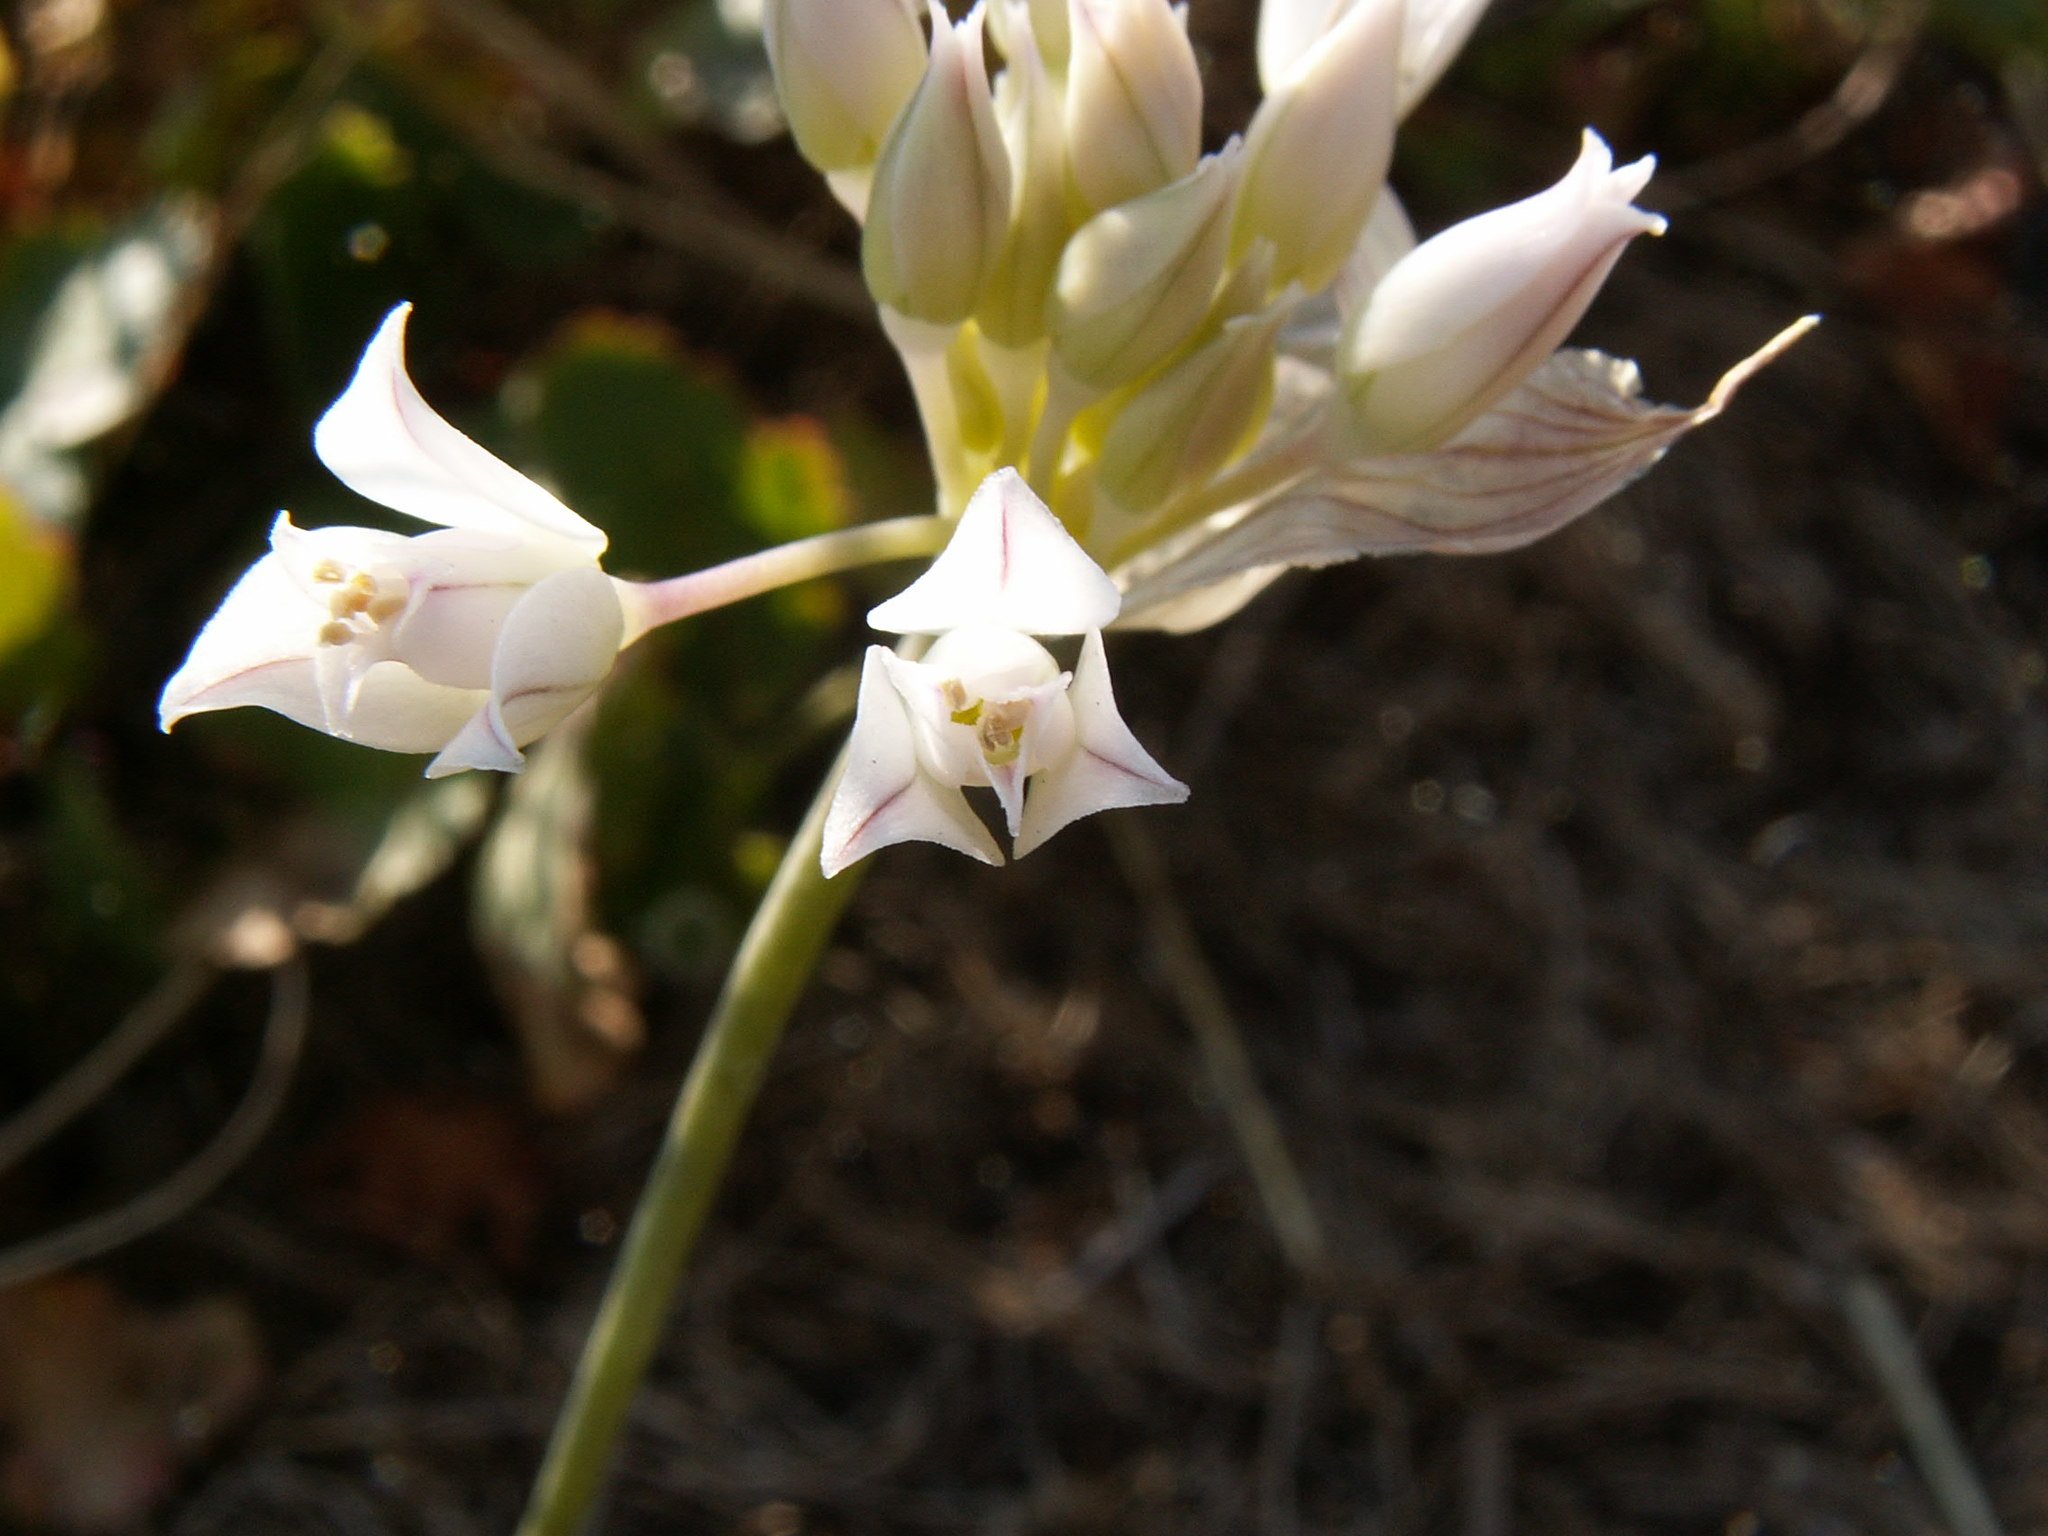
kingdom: Plantae
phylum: Tracheophyta
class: Liliopsida
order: Asparagales
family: Amaryllidaceae
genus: Allium
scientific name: Allium acuminatum
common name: Hooker's onion
